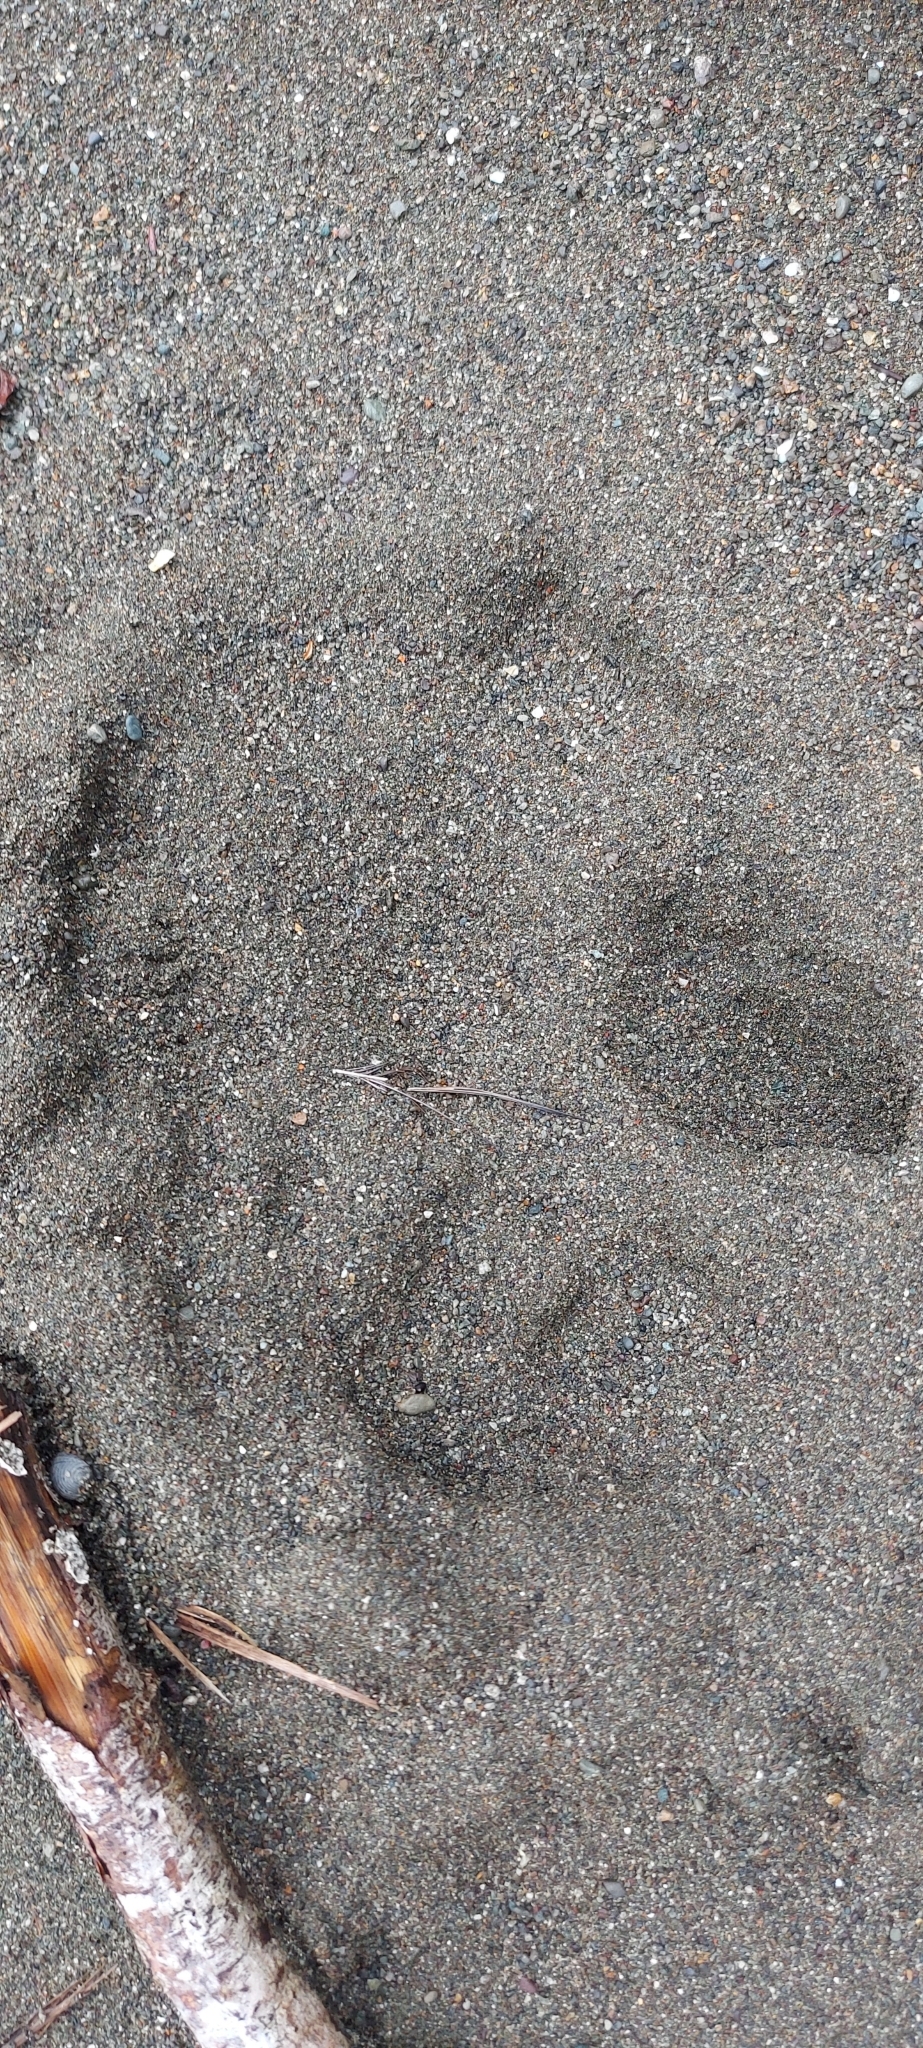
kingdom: Animalia
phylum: Chordata
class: Mammalia
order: Perissodactyla
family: Tapiridae
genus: Tapirella
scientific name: Tapirella bairdii
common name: Baird's tapir
